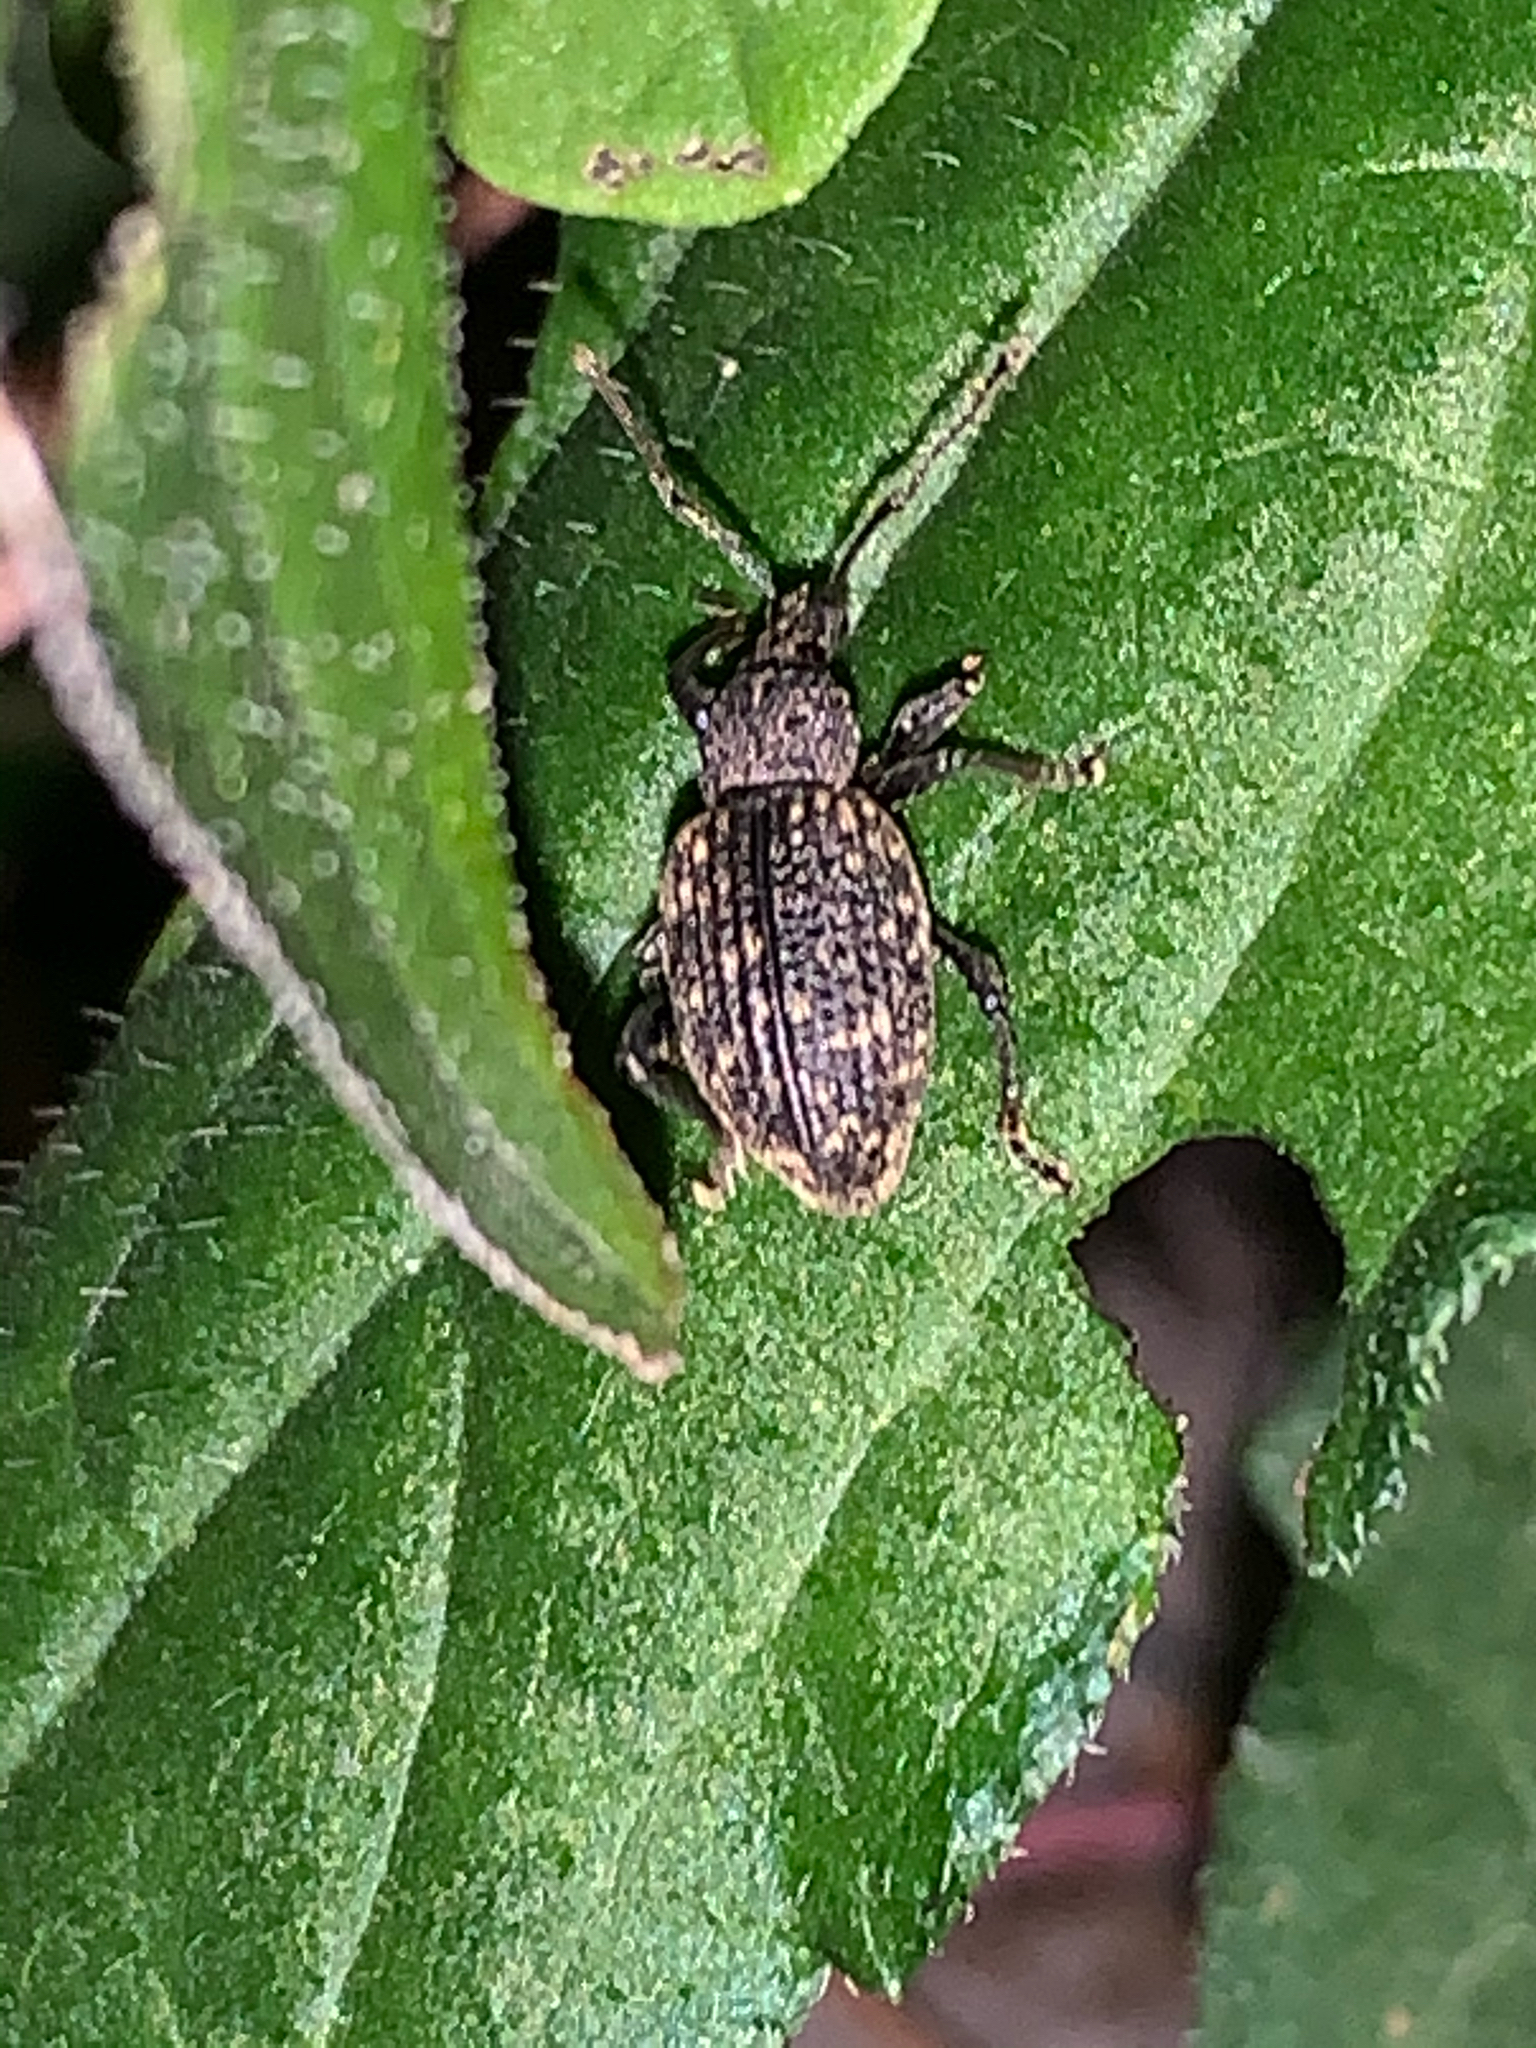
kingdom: Animalia
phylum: Arthropoda
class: Insecta
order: Coleoptera
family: Curculionidae
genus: Otiorhynchus
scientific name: Otiorhynchus sulcatus
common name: Black vine weevil
